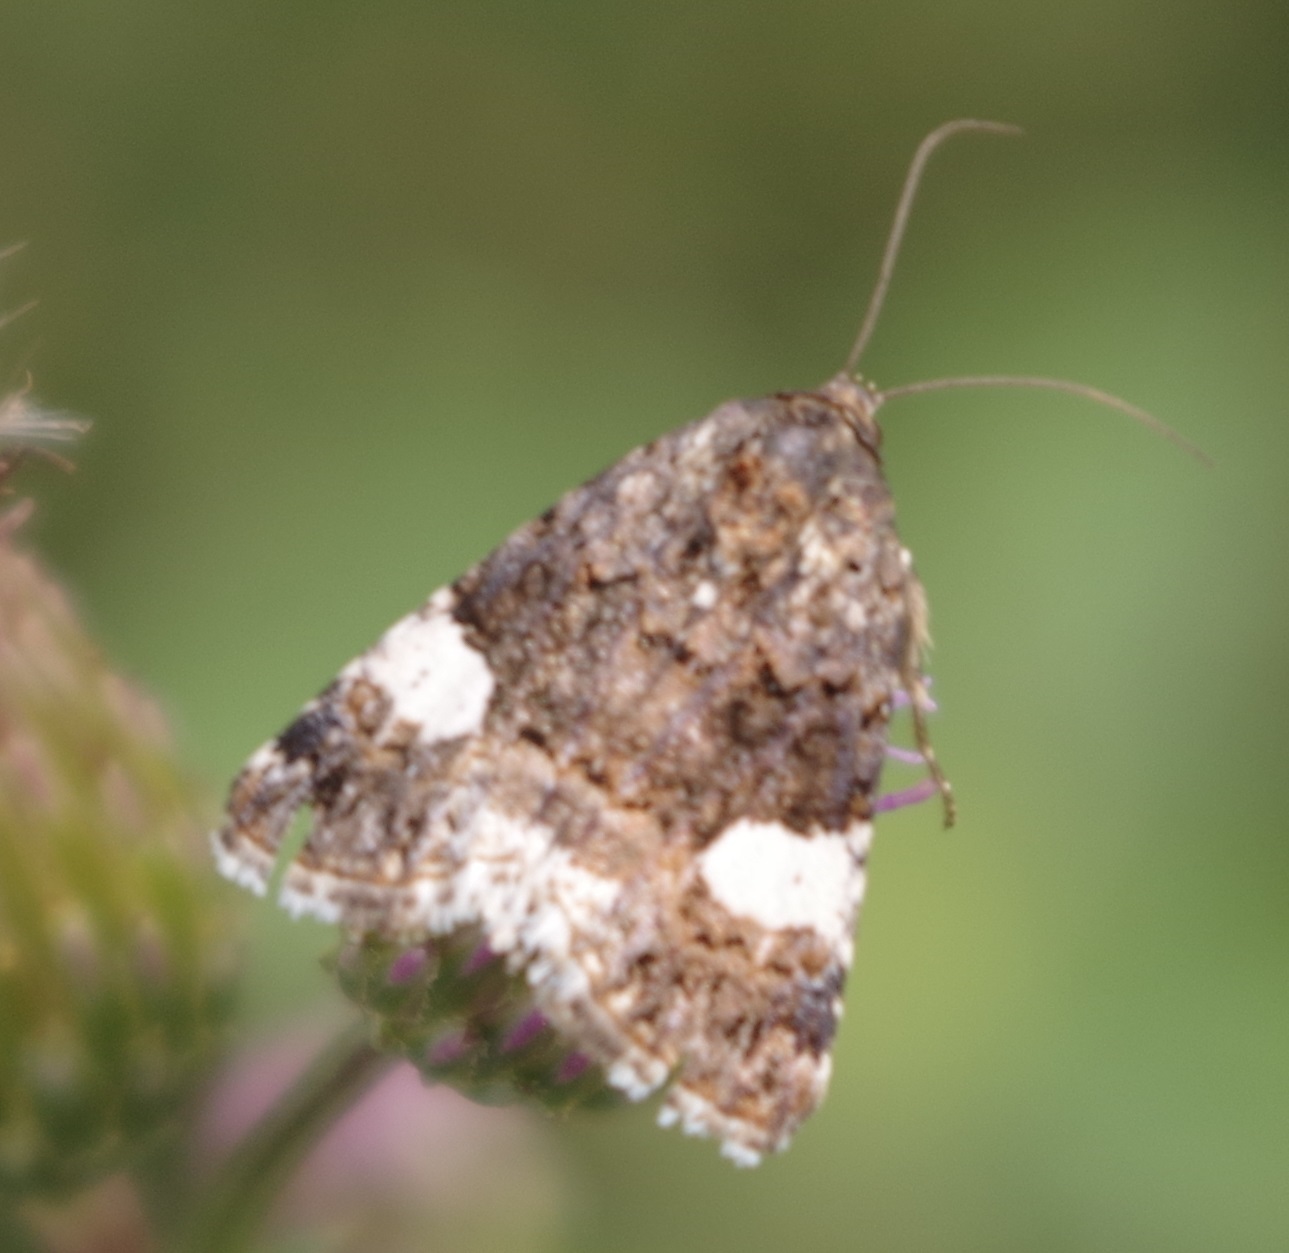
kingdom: Animalia
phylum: Arthropoda
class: Insecta
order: Lepidoptera
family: Erebidae
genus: Tyta
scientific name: Tyta luctuosa
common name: Four-spotted
